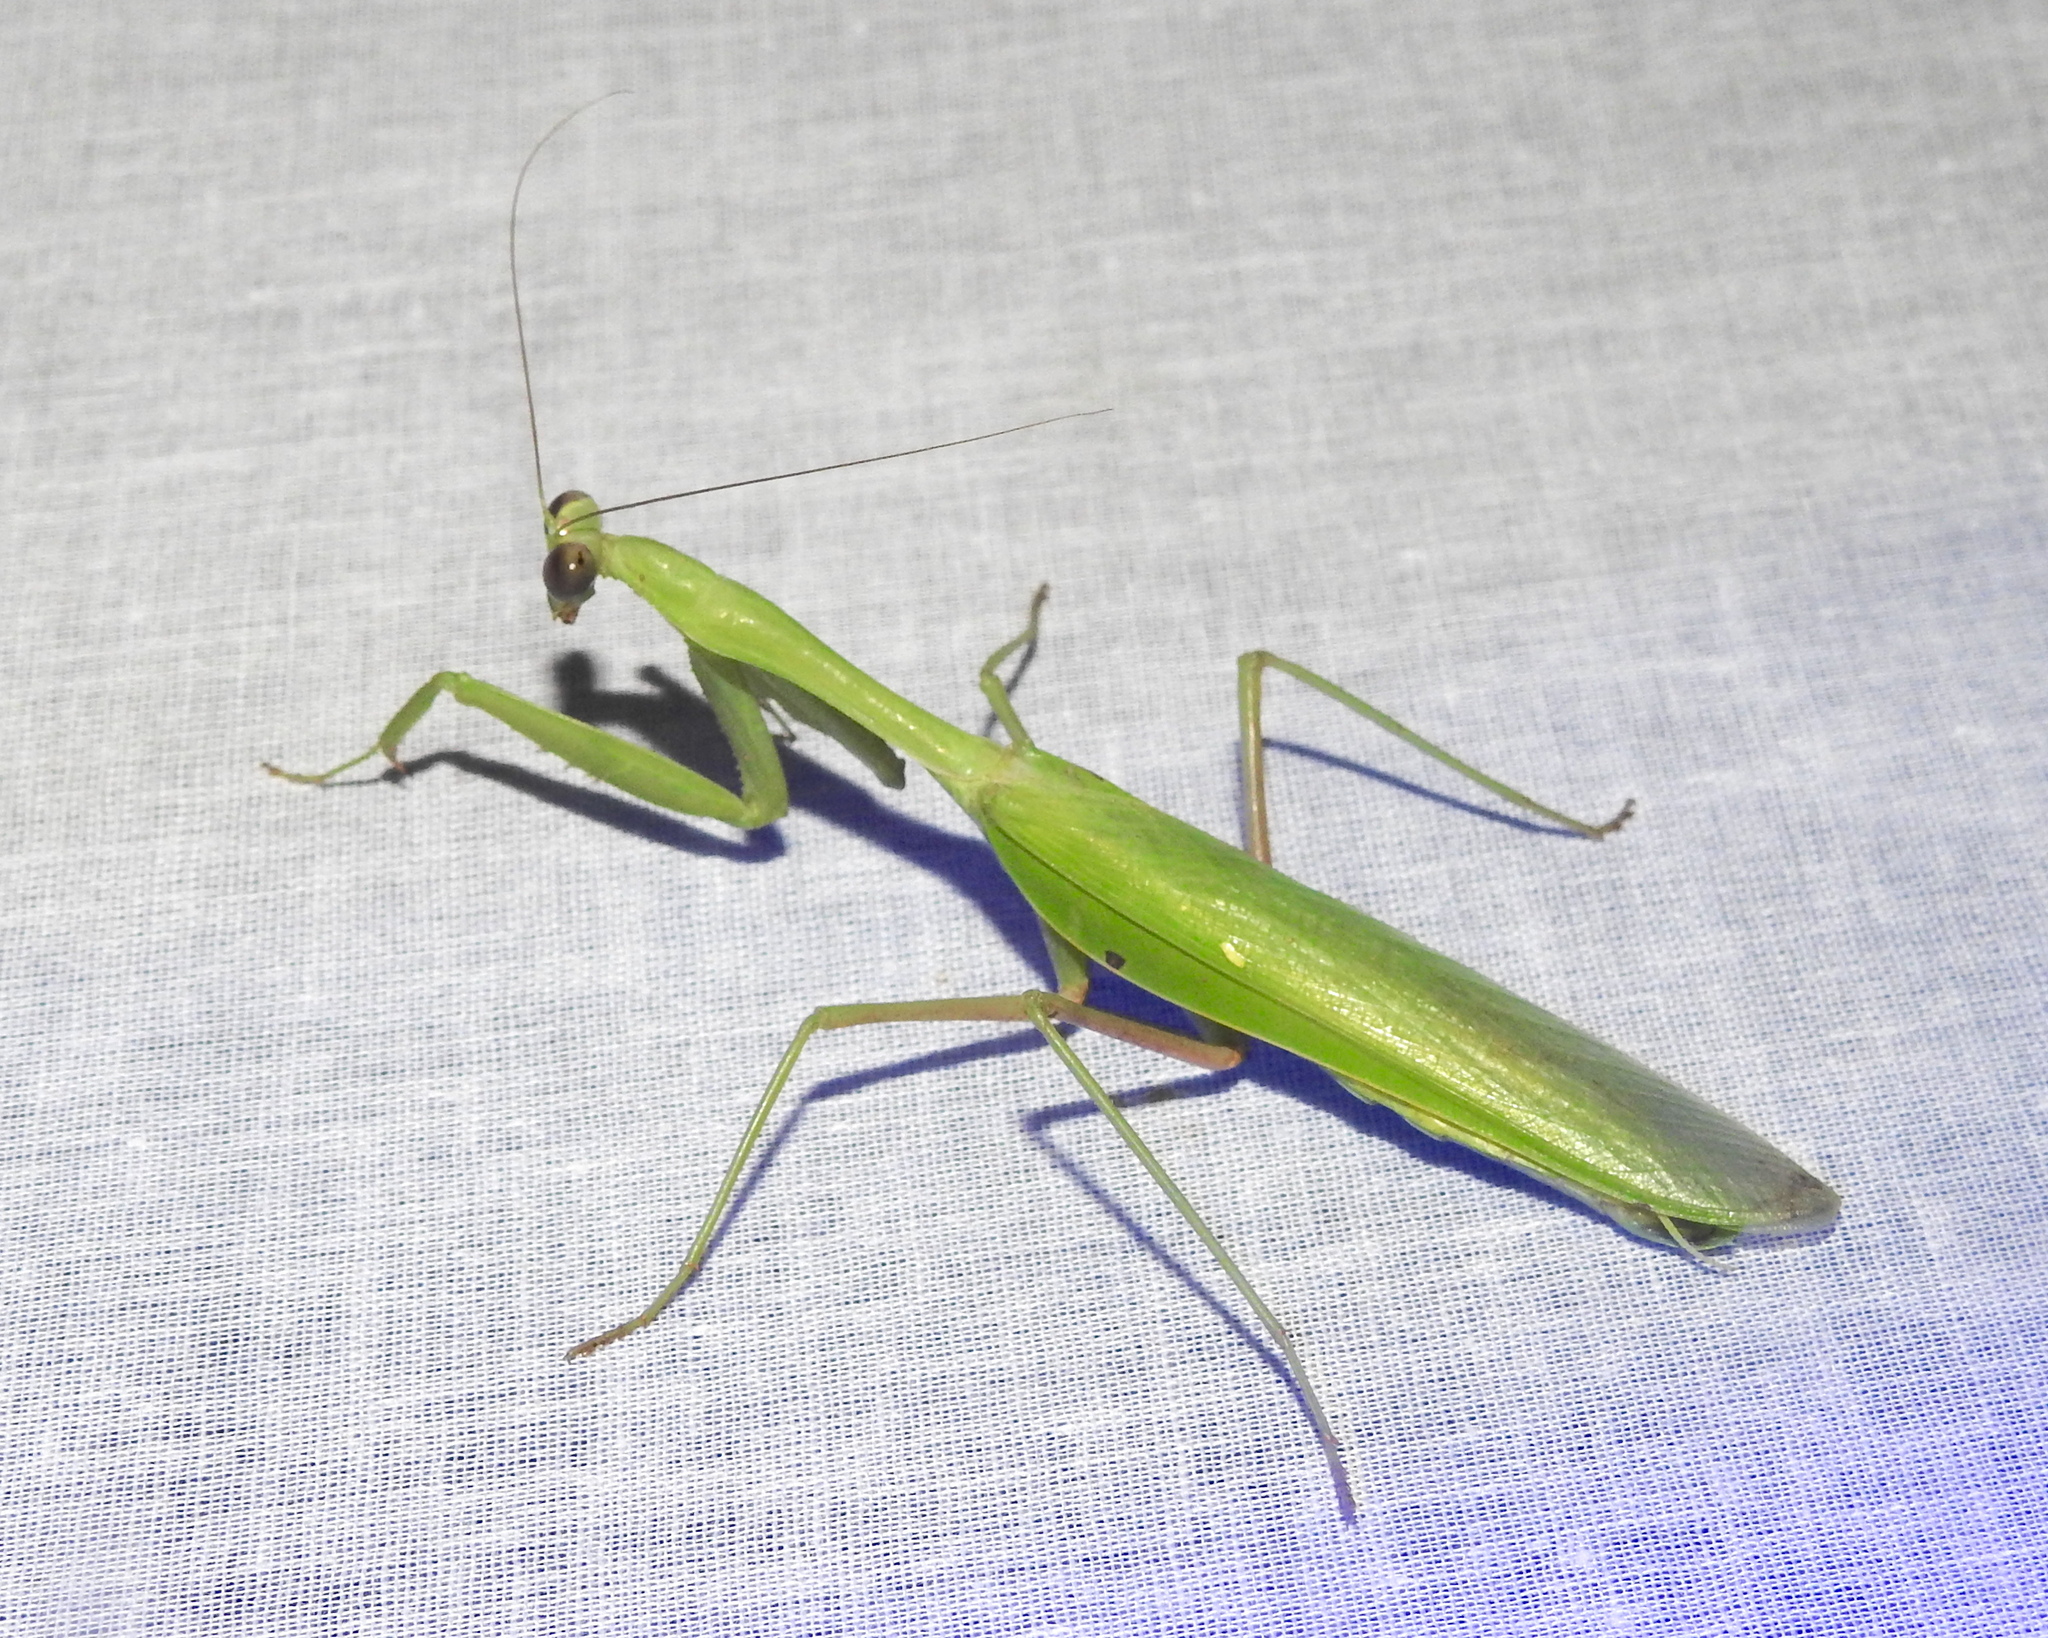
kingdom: Animalia
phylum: Arthropoda
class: Insecta
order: Mantodea
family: Mantidae
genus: Hierodula
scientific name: Hierodula membranacea
